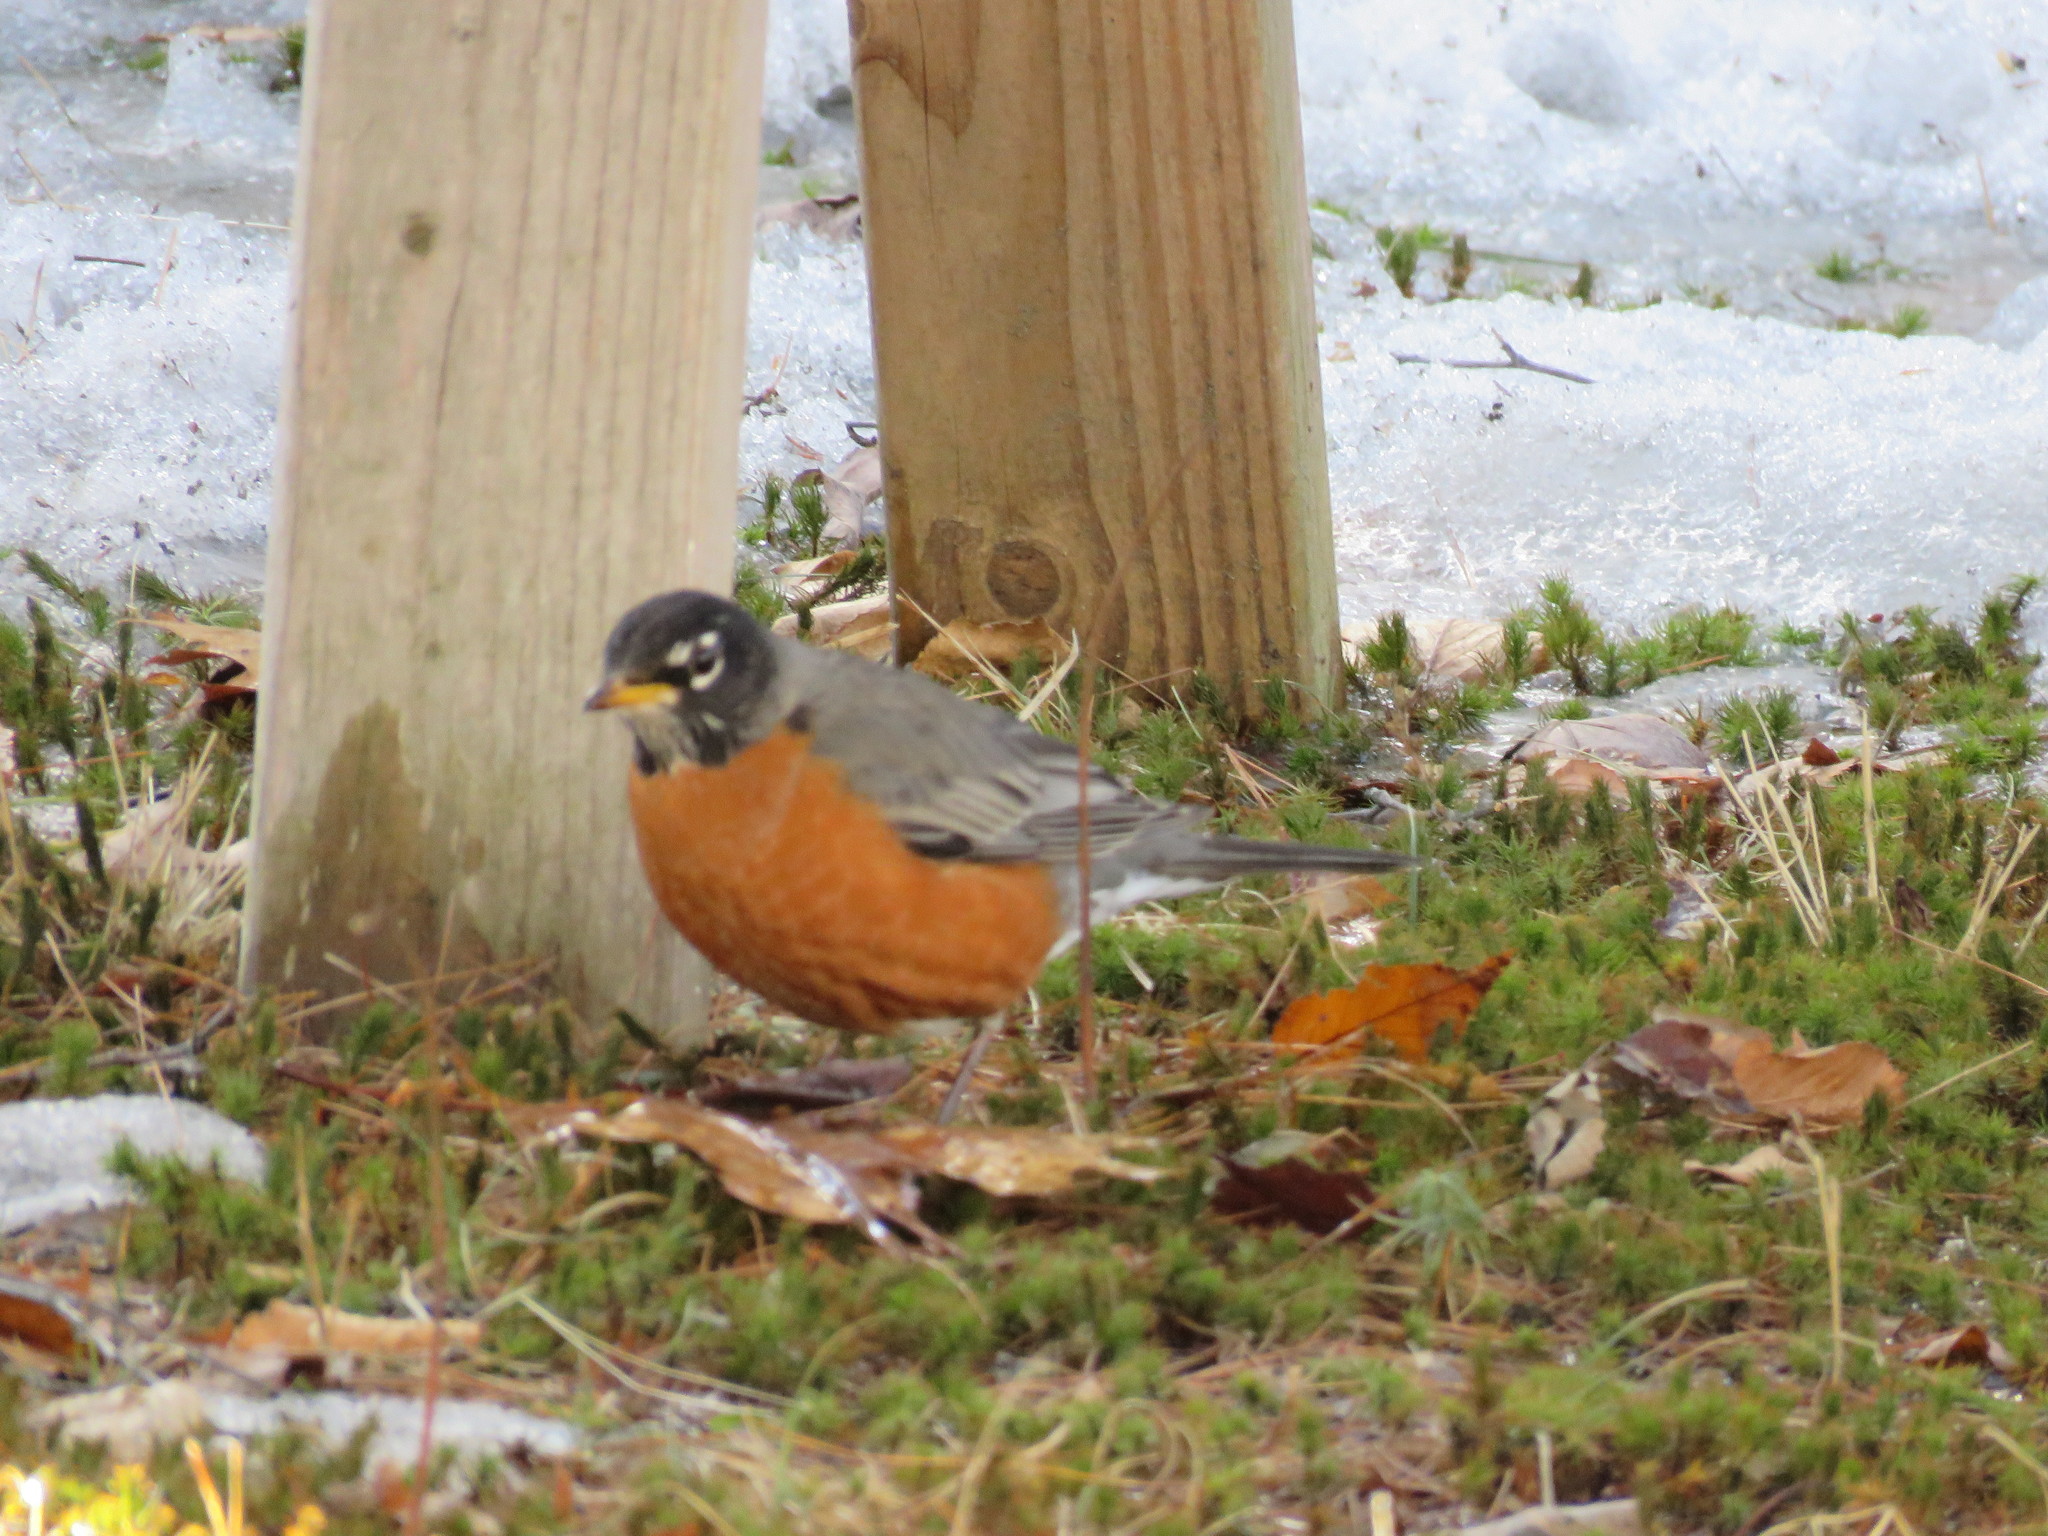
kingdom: Animalia
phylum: Chordata
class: Aves
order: Passeriformes
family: Turdidae
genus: Turdus
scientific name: Turdus migratorius
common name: American robin
